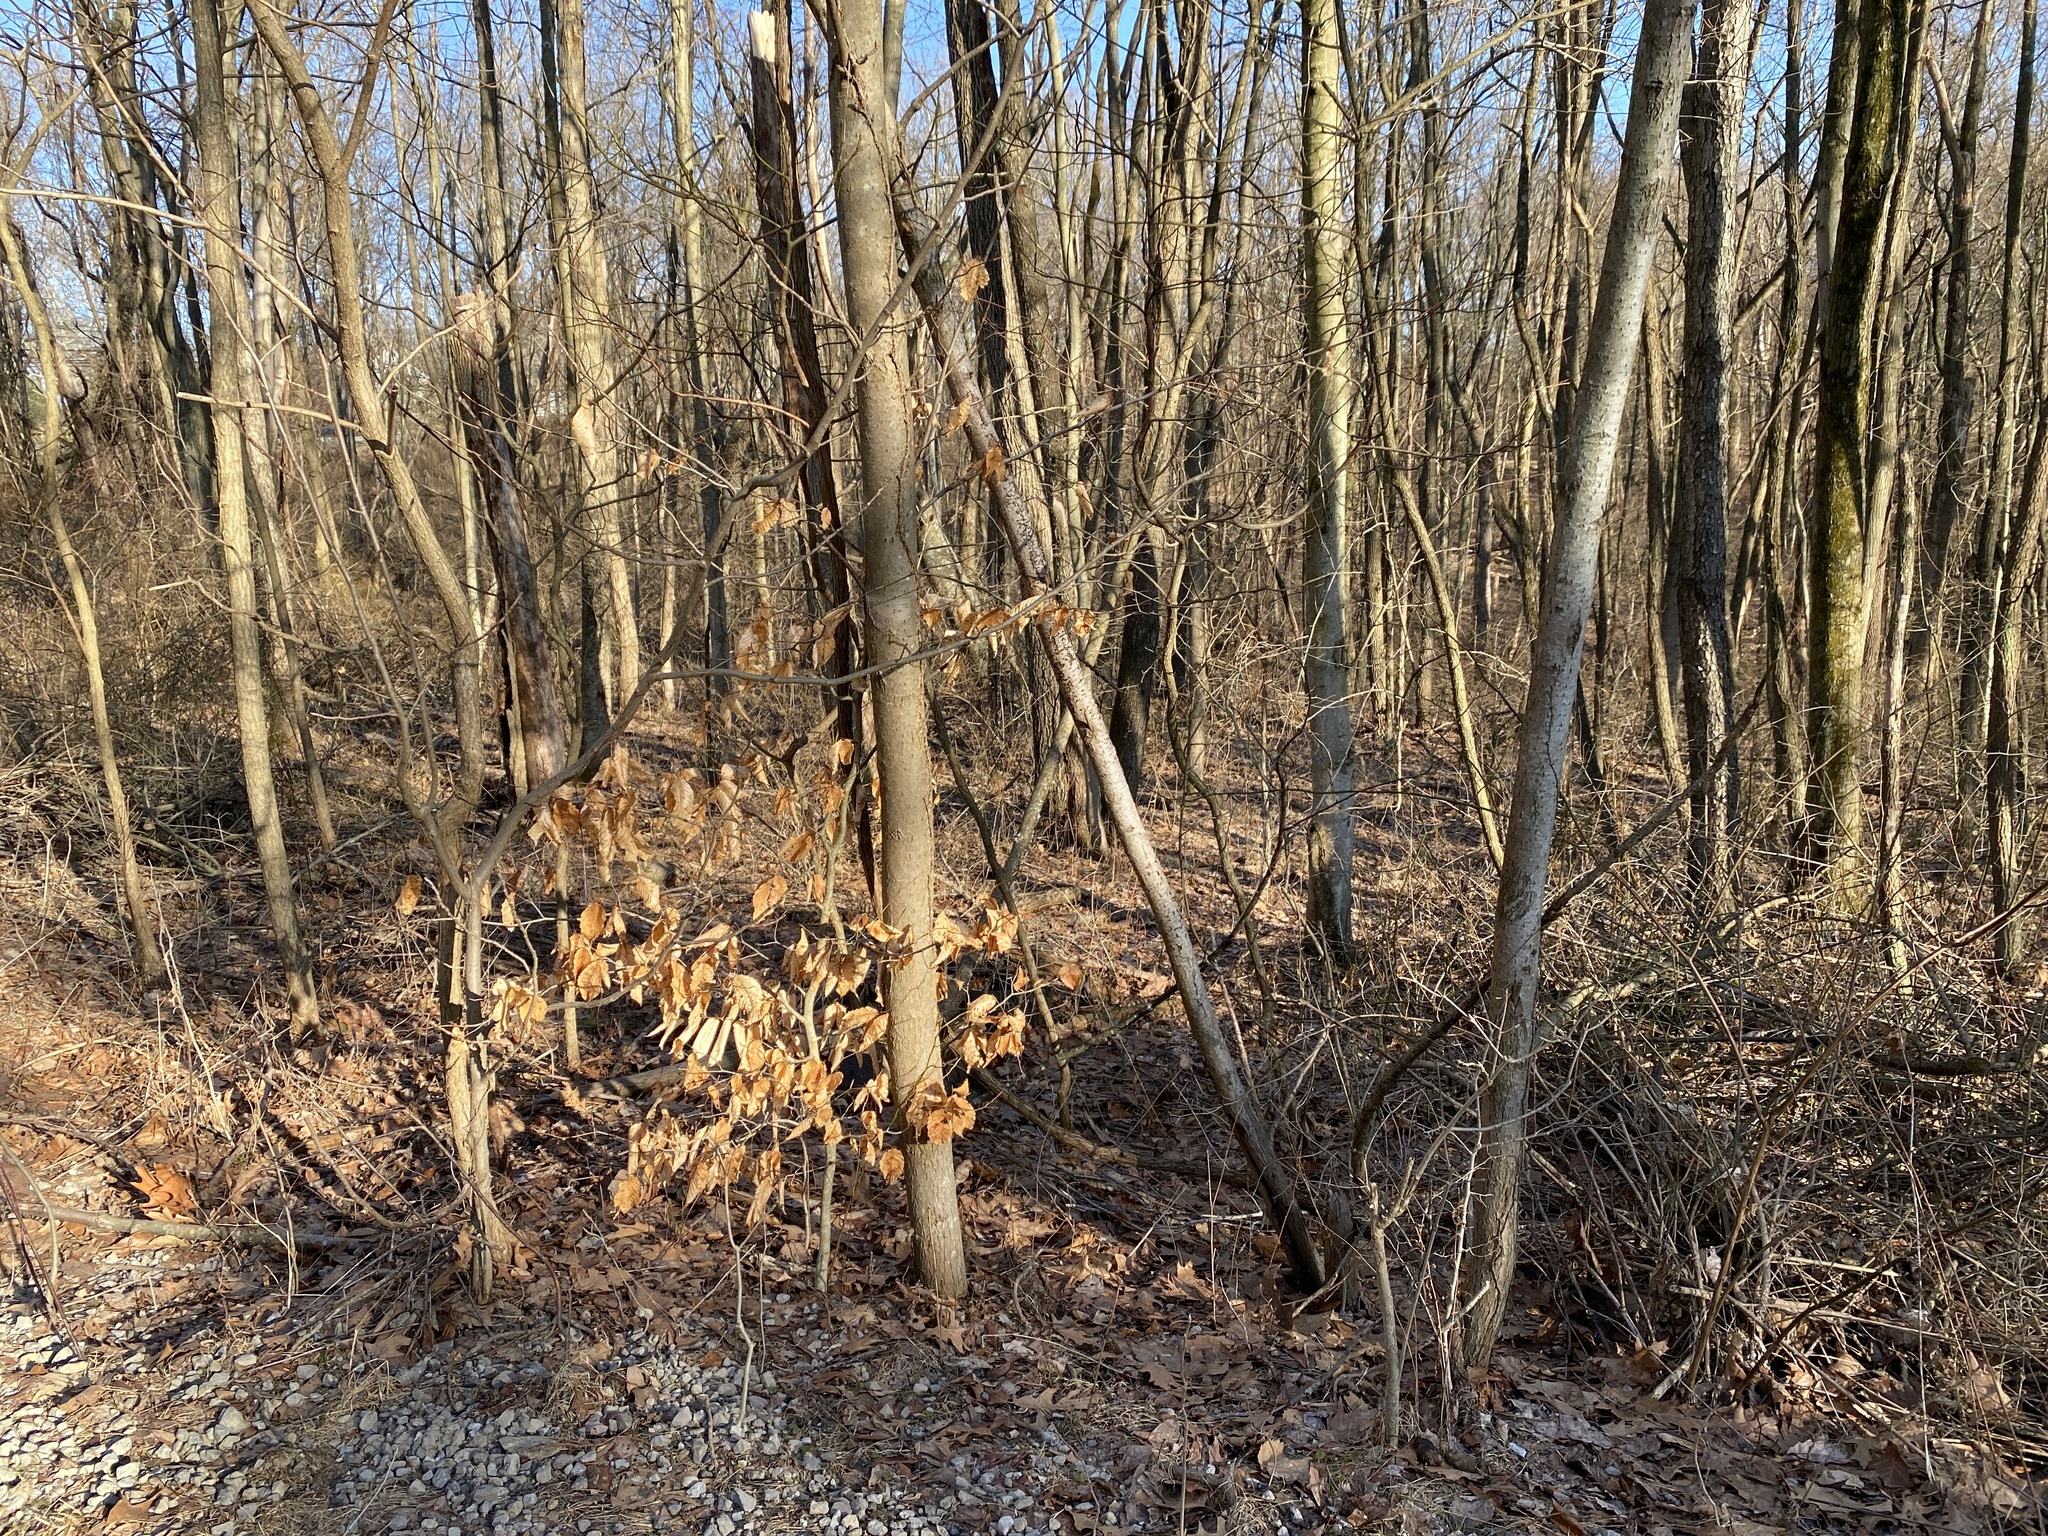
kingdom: Plantae
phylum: Tracheophyta
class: Magnoliopsida
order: Fagales
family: Fagaceae
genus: Fagus
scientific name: Fagus grandifolia
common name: American beech
